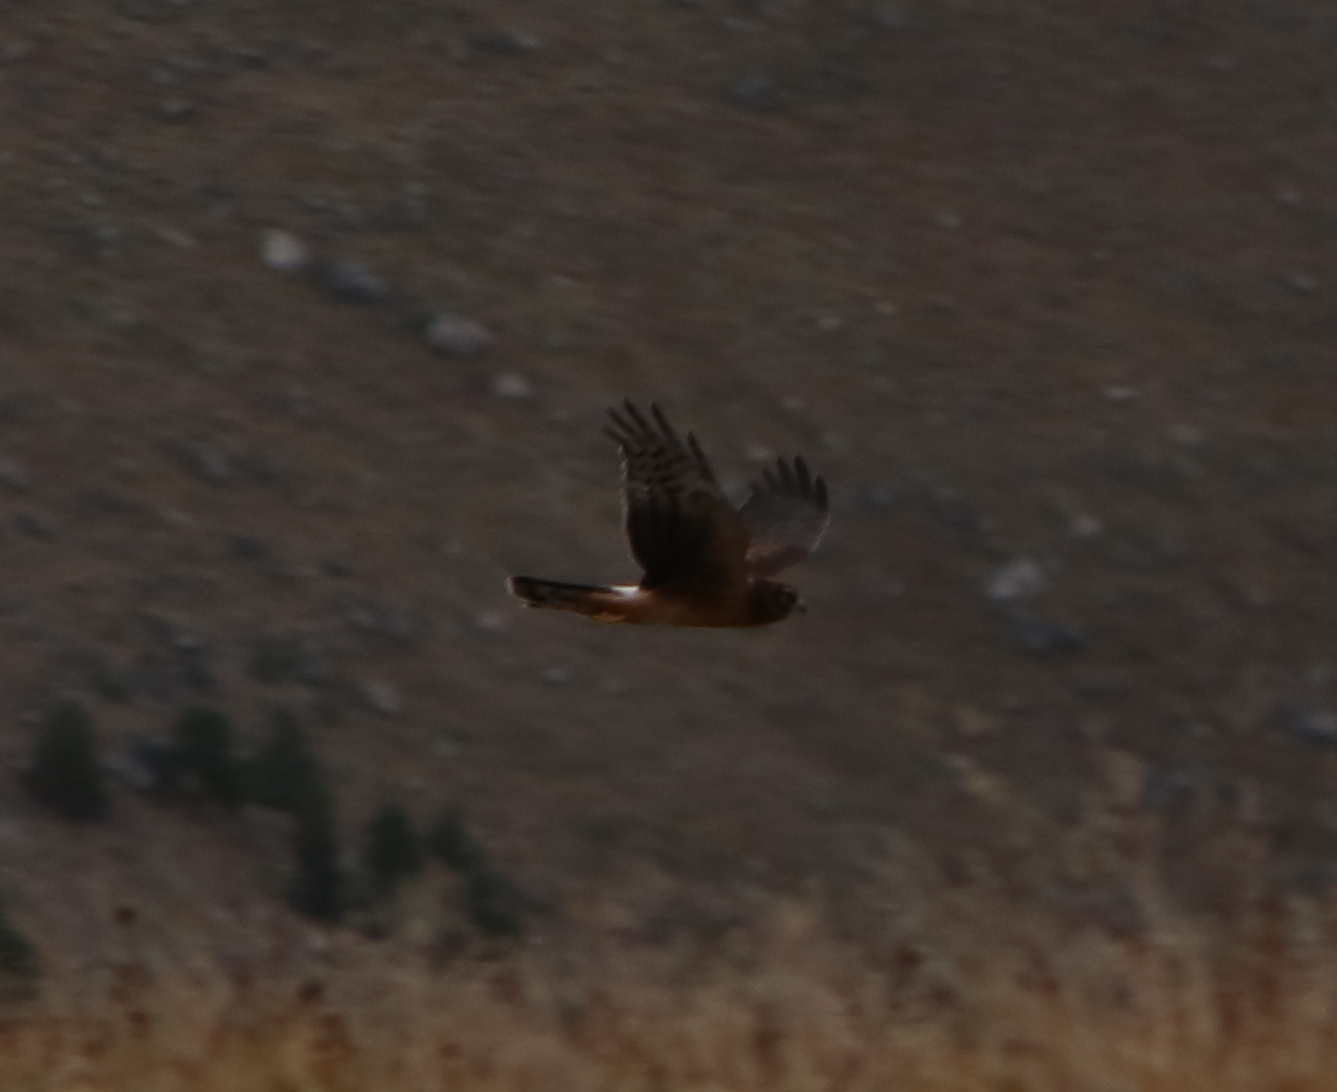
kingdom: Animalia
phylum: Chordata
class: Aves
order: Accipitriformes
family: Accipitridae
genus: Circus
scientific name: Circus cyaneus
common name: Hen harrier
